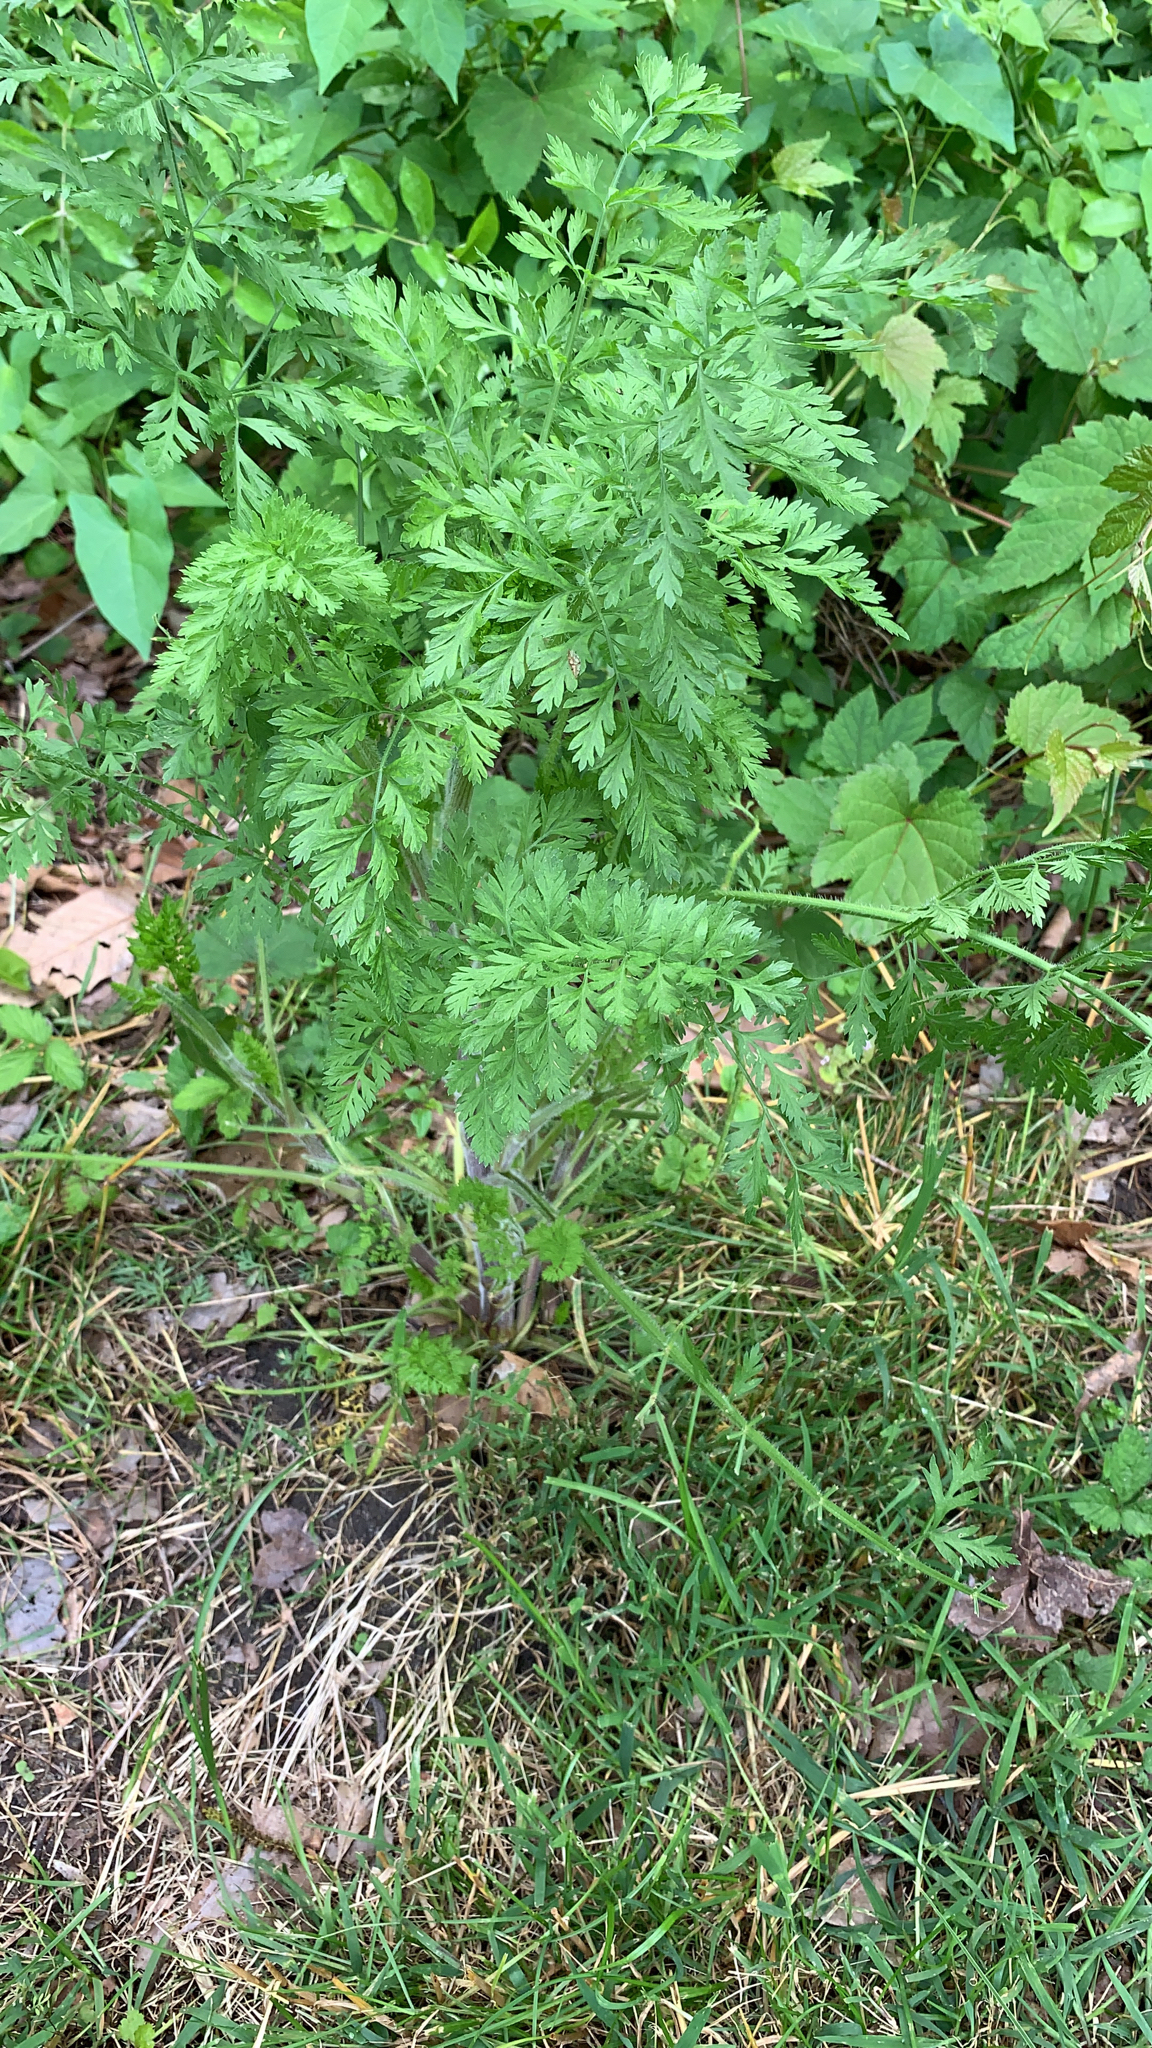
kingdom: Plantae
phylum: Tracheophyta
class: Magnoliopsida
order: Apiales
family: Apiaceae
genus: Daucus
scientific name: Daucus carota
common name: Wild carrot
